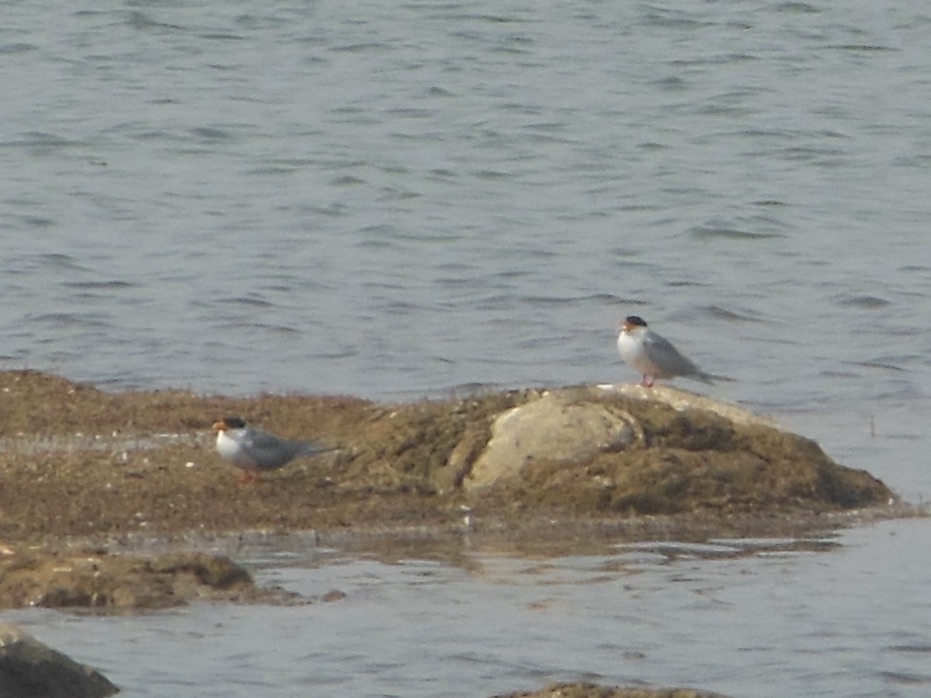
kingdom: Animalia
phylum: Chordata
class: Aves
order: Charadriiformes
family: Laridae
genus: Sterna
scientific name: Sterna aurantia
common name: River tern
